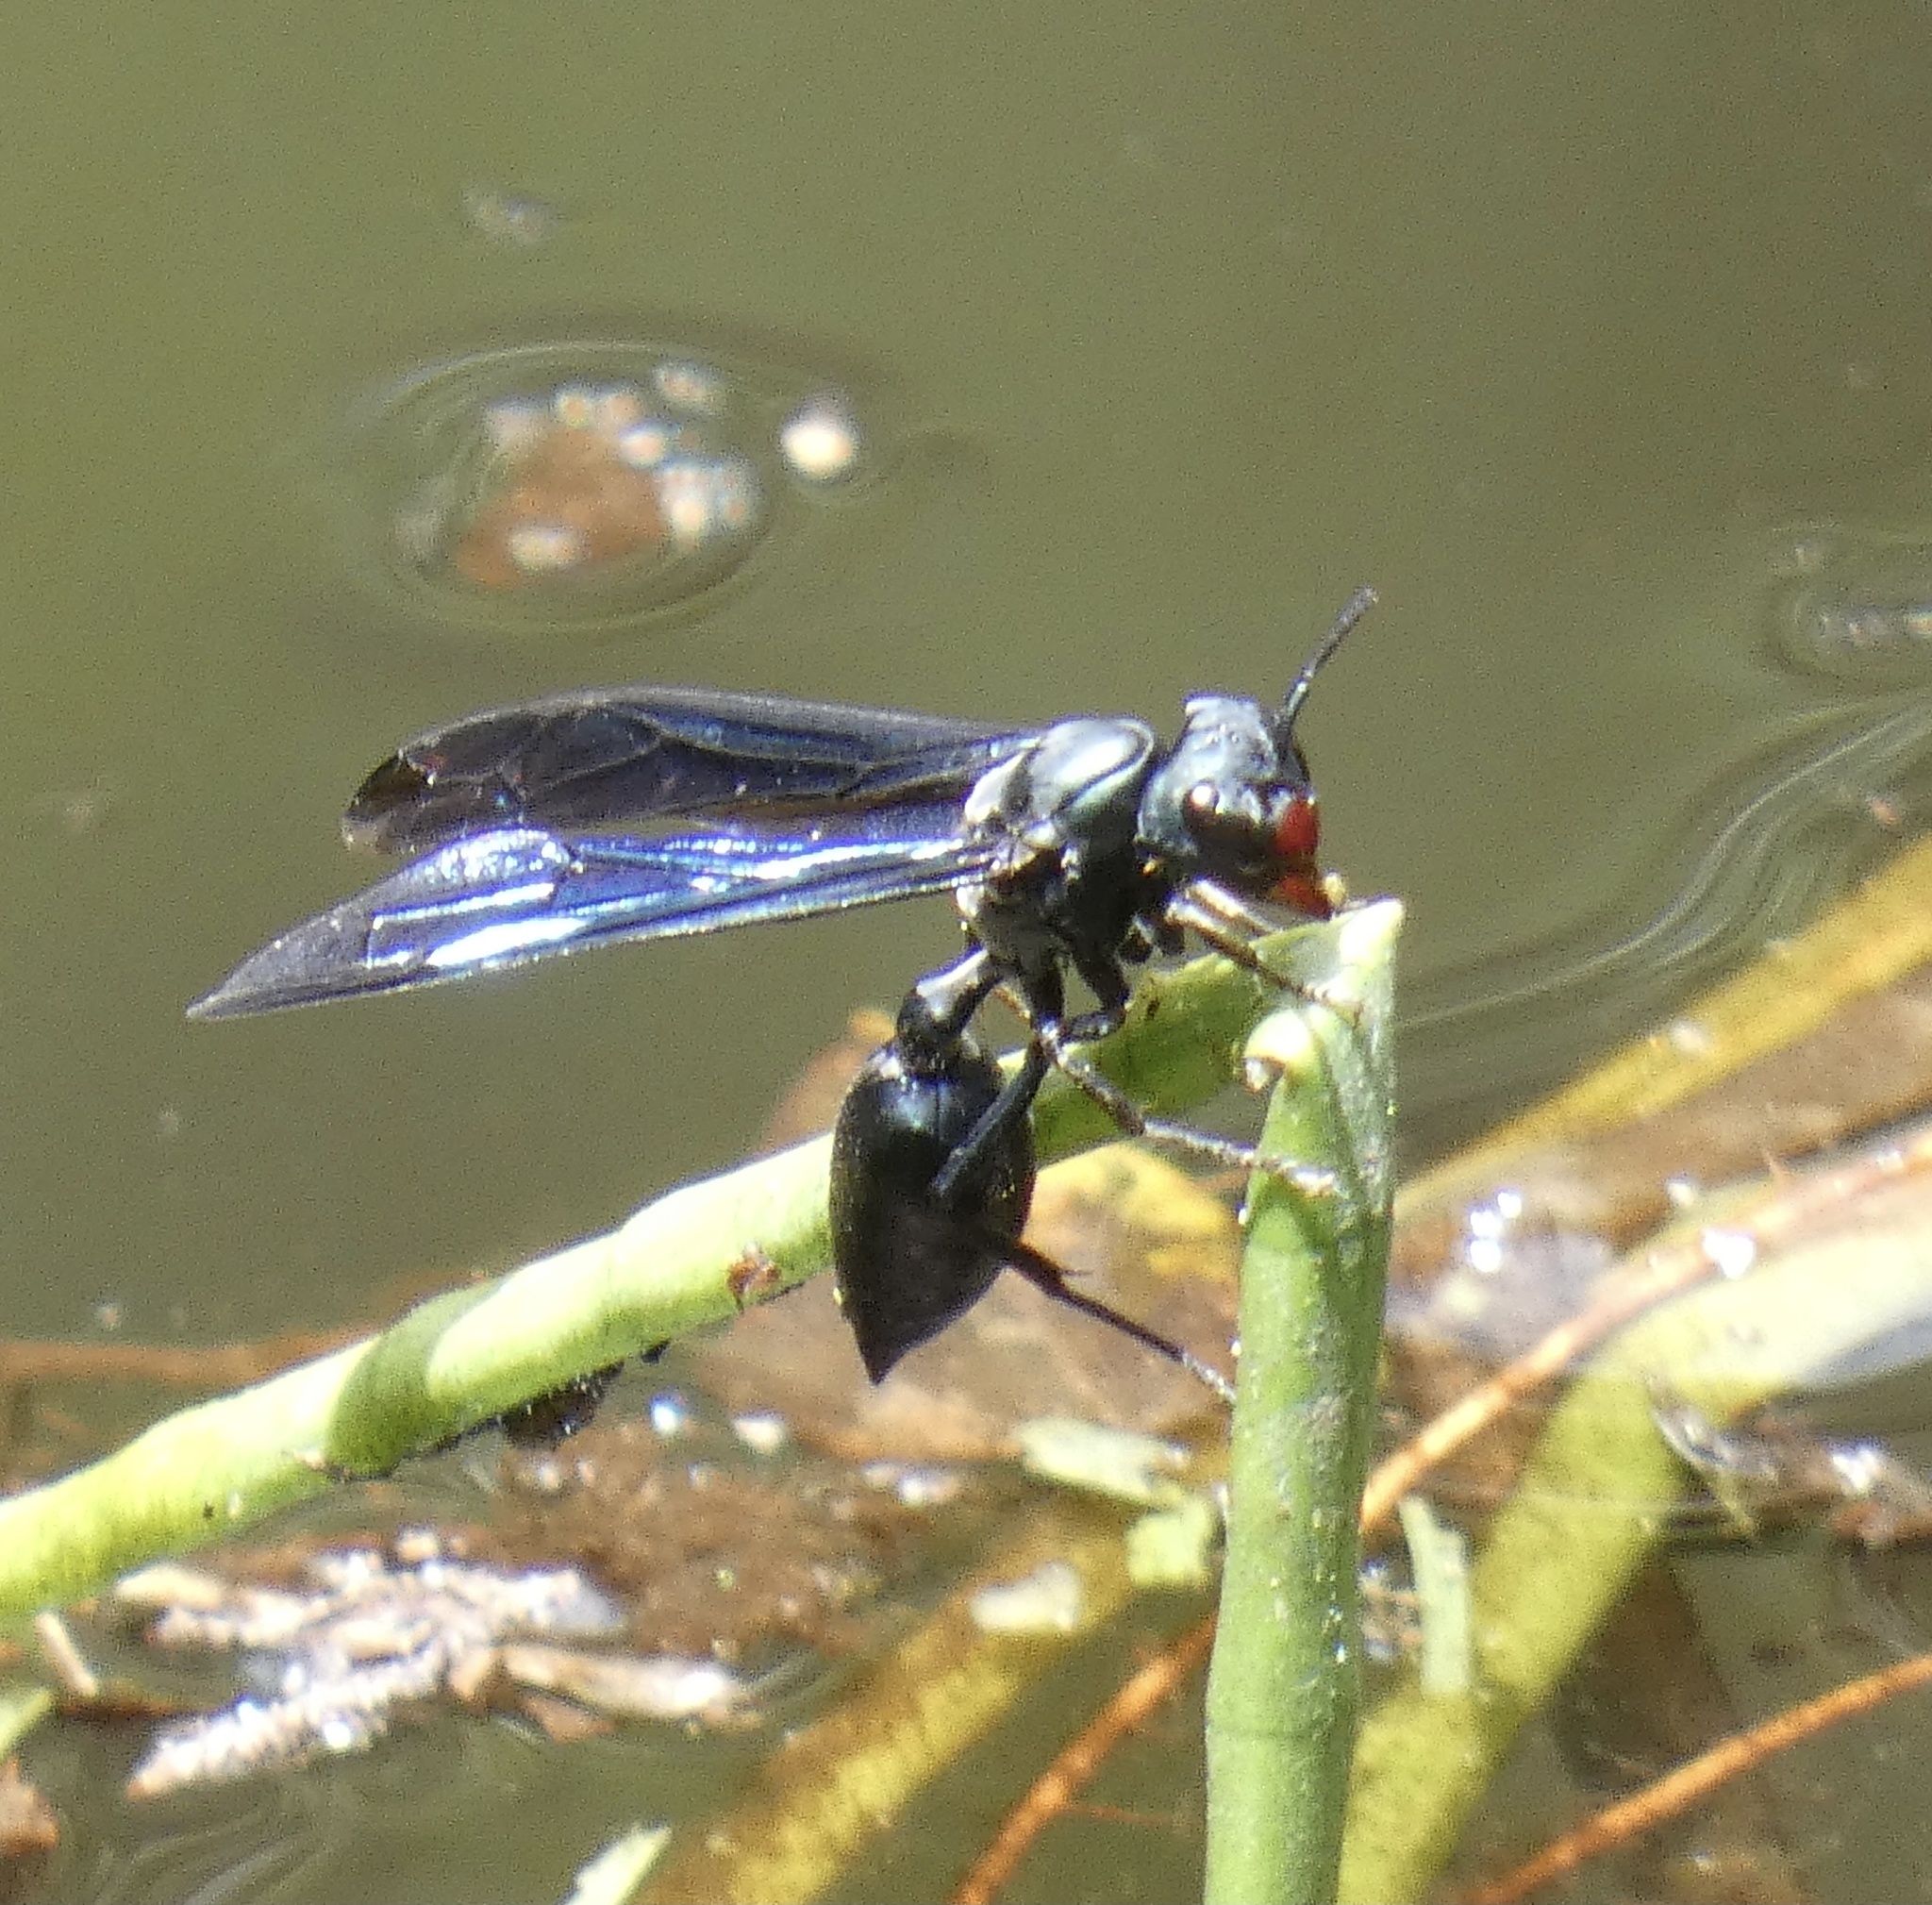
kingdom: Animalia
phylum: Arthropoda
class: Insecta
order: Hymenoptera
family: Vespidae
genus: Synoeca
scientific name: Synoeca cyanea
